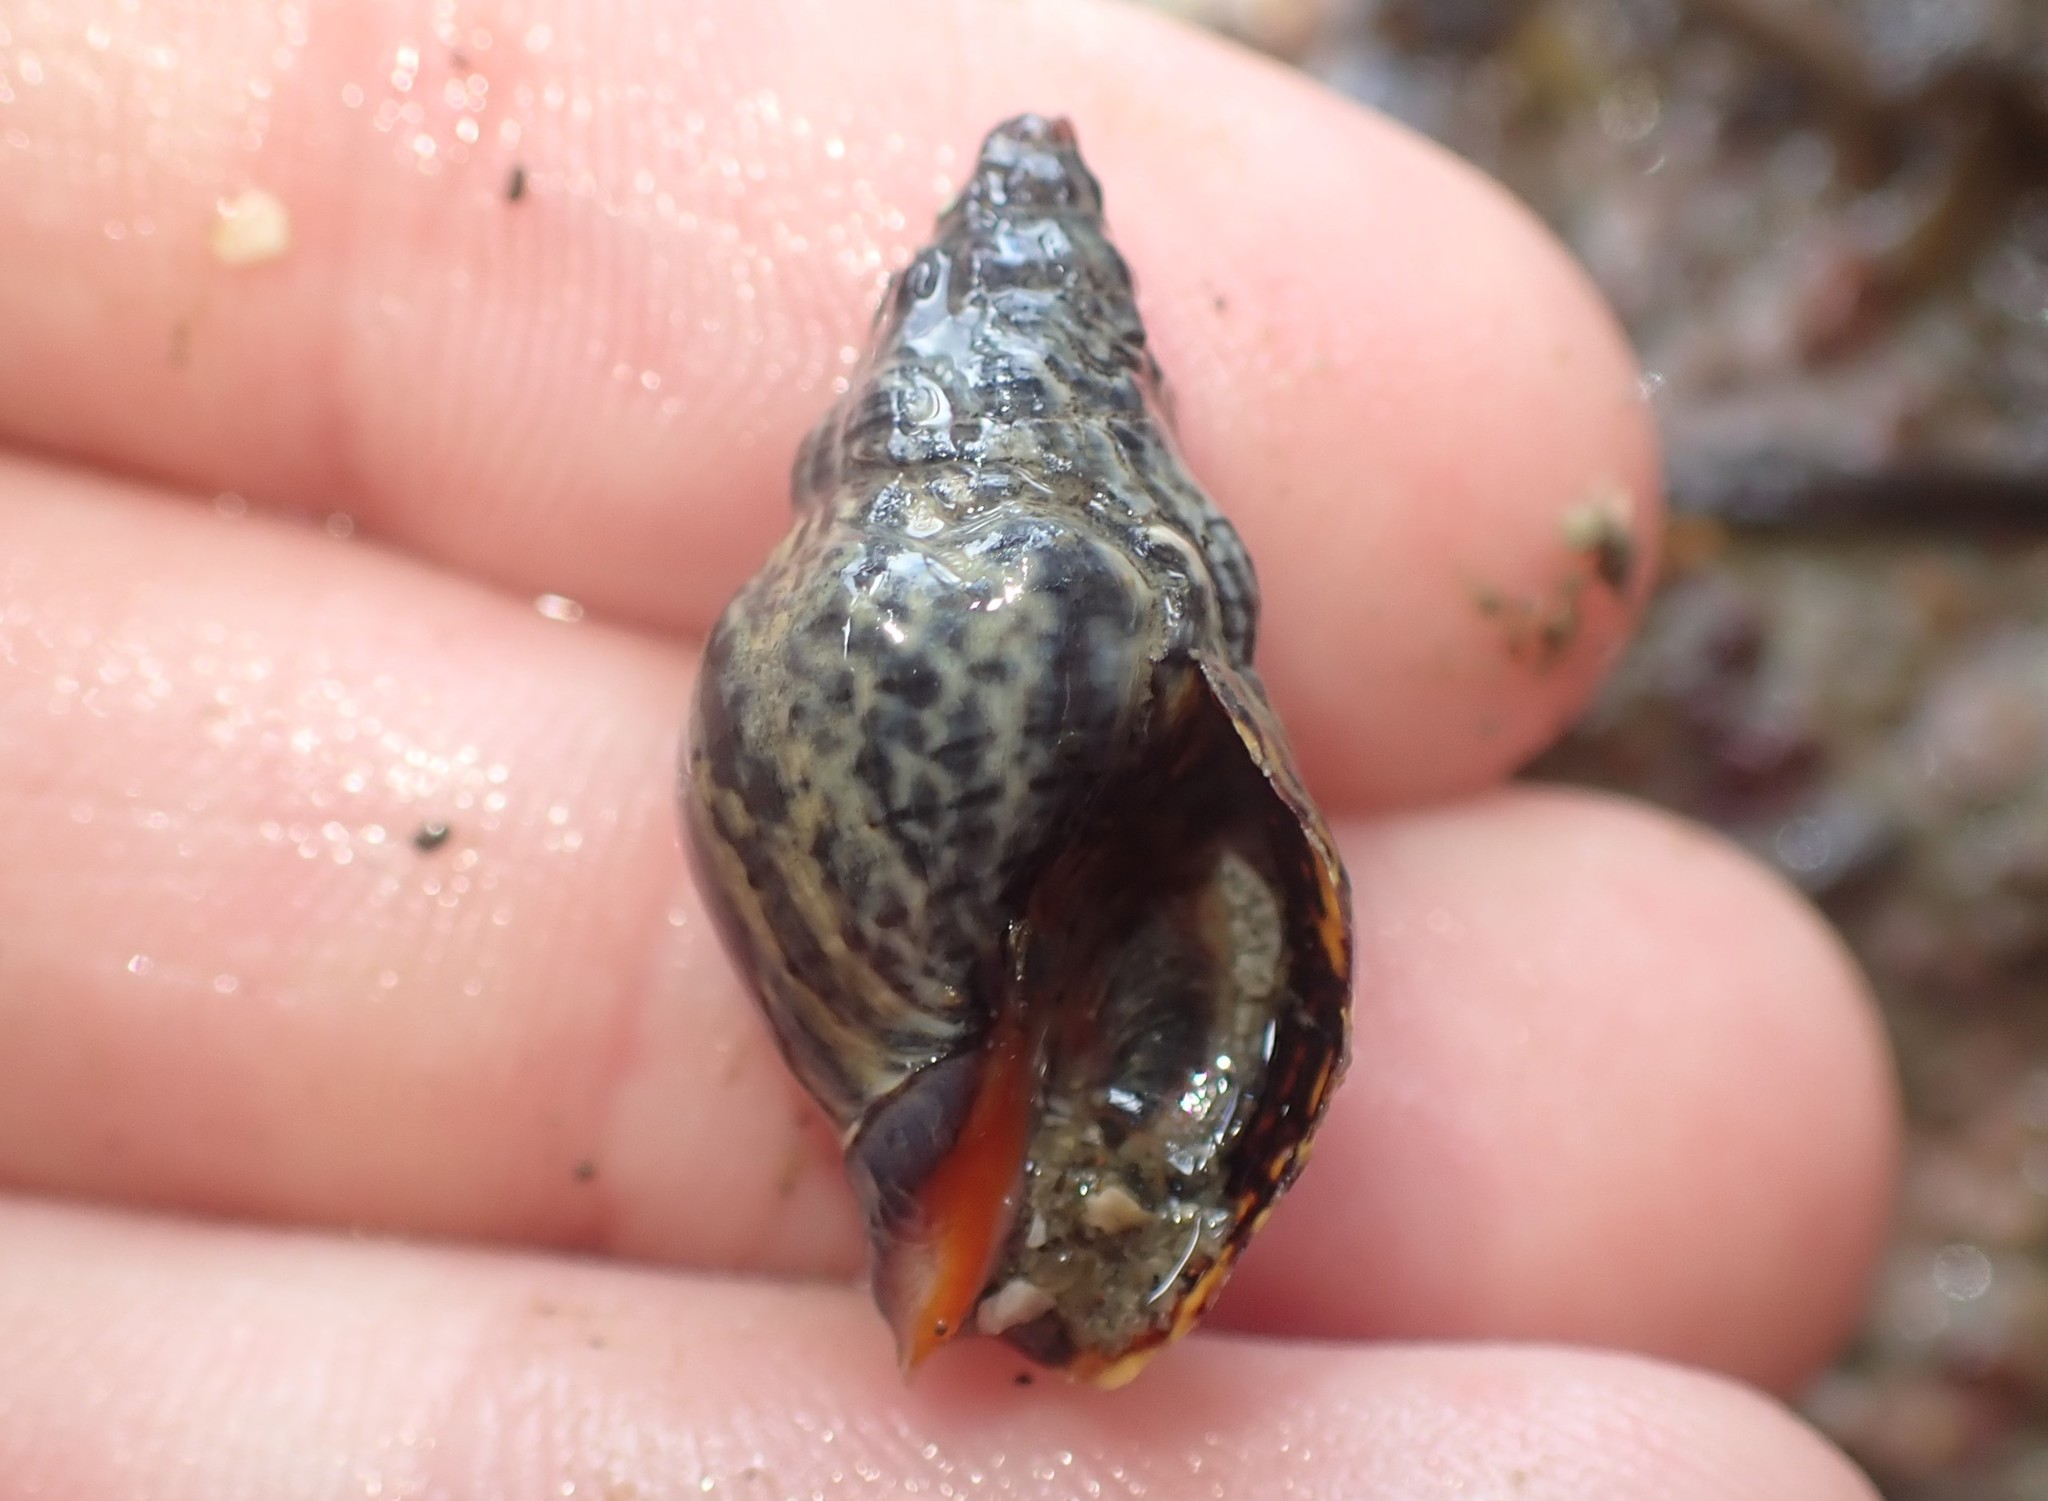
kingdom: Animalia
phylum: Mollusca
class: Gastropoda
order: Neogastropoda
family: Cominellidae
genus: Cominella
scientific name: Cominella virgata
